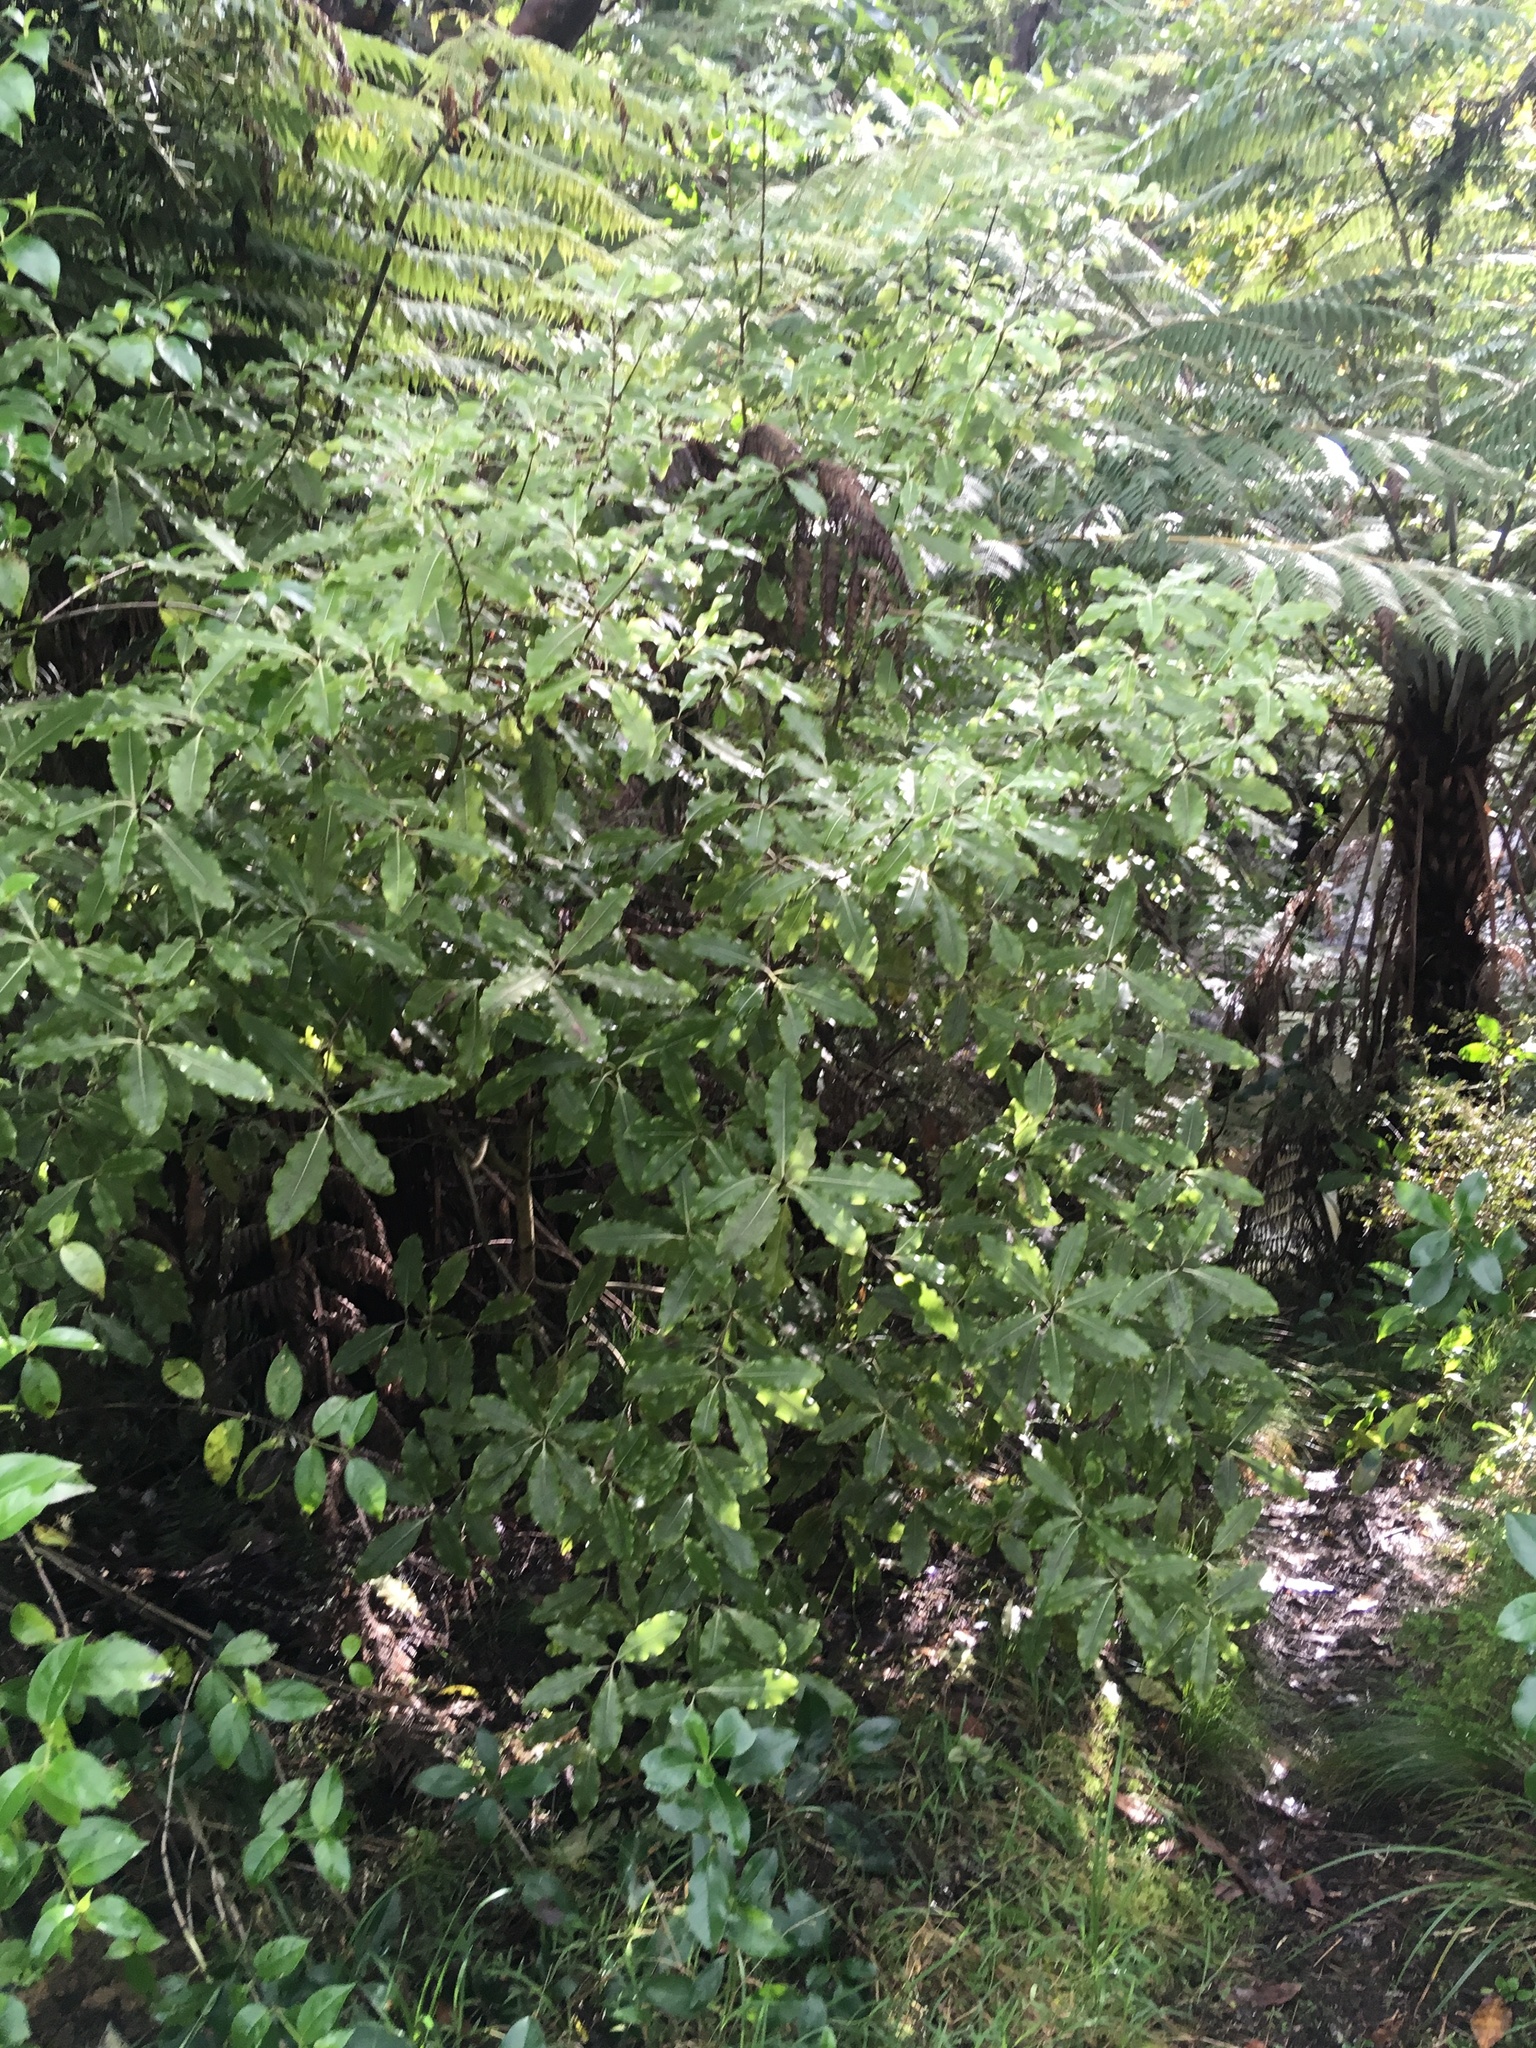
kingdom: Plantae
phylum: Tracheophyta
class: Magnoliopsida
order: Apiales
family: Pittosporaceae
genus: Pittosporum
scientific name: Pittosporum eugenioides
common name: Lemonwood
